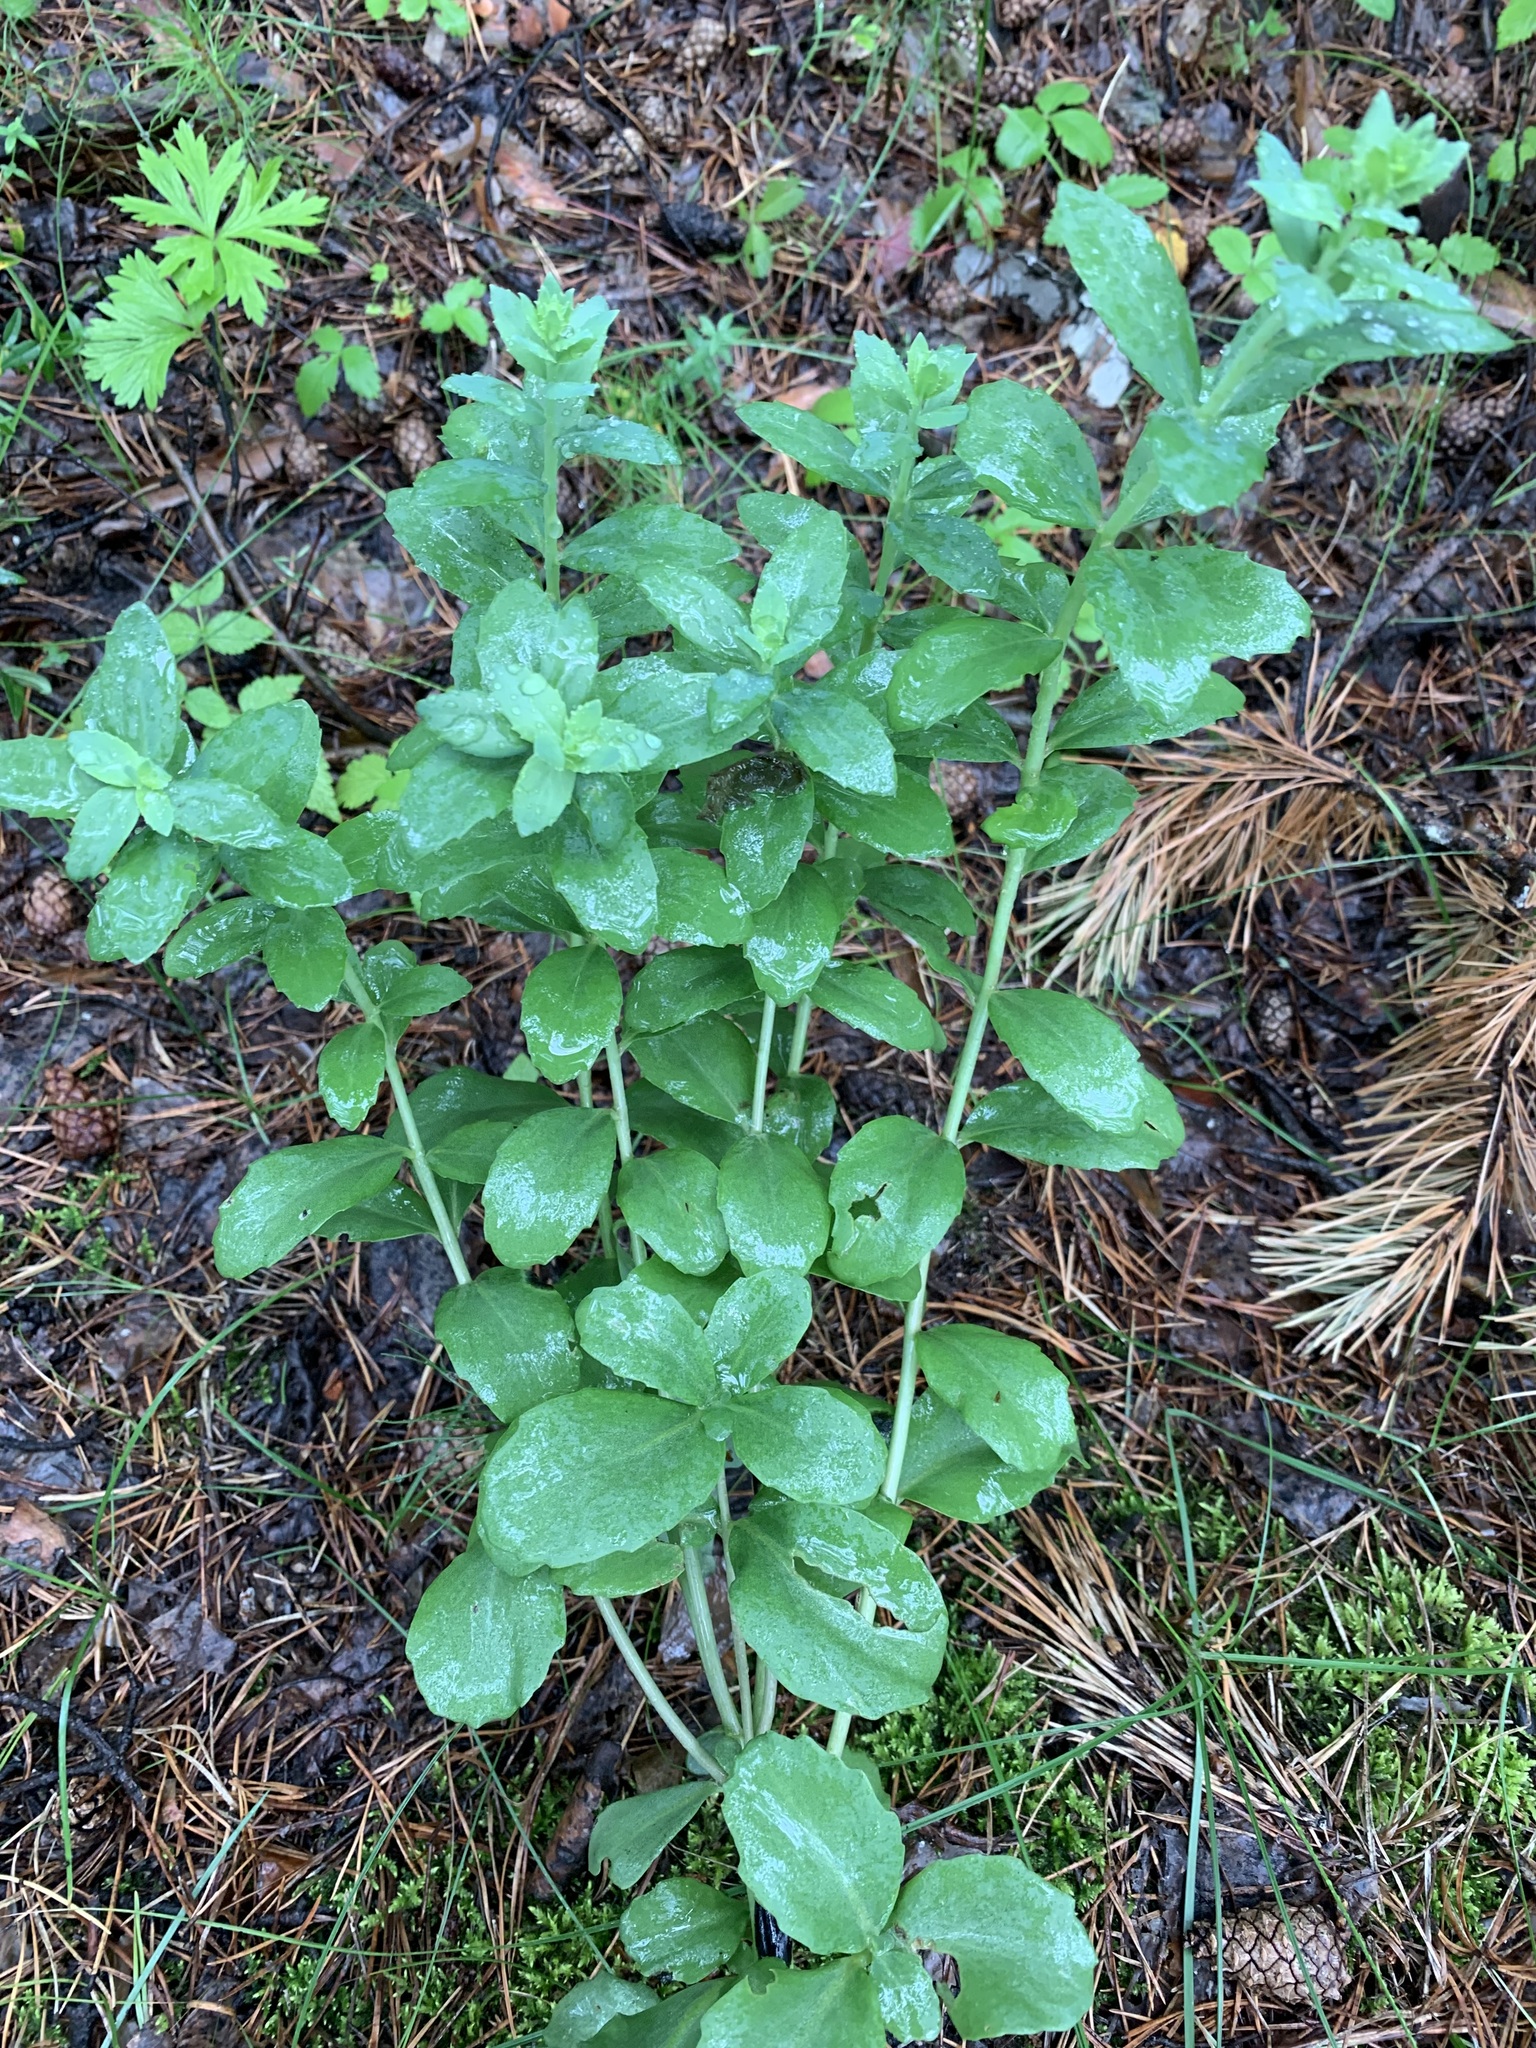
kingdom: Plantae
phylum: Tracheophyta
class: Magnoliopsida
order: Saxifragales
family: Crassulaceae
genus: Hylotelephium
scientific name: Hylotelephium telephium
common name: Live-forever
